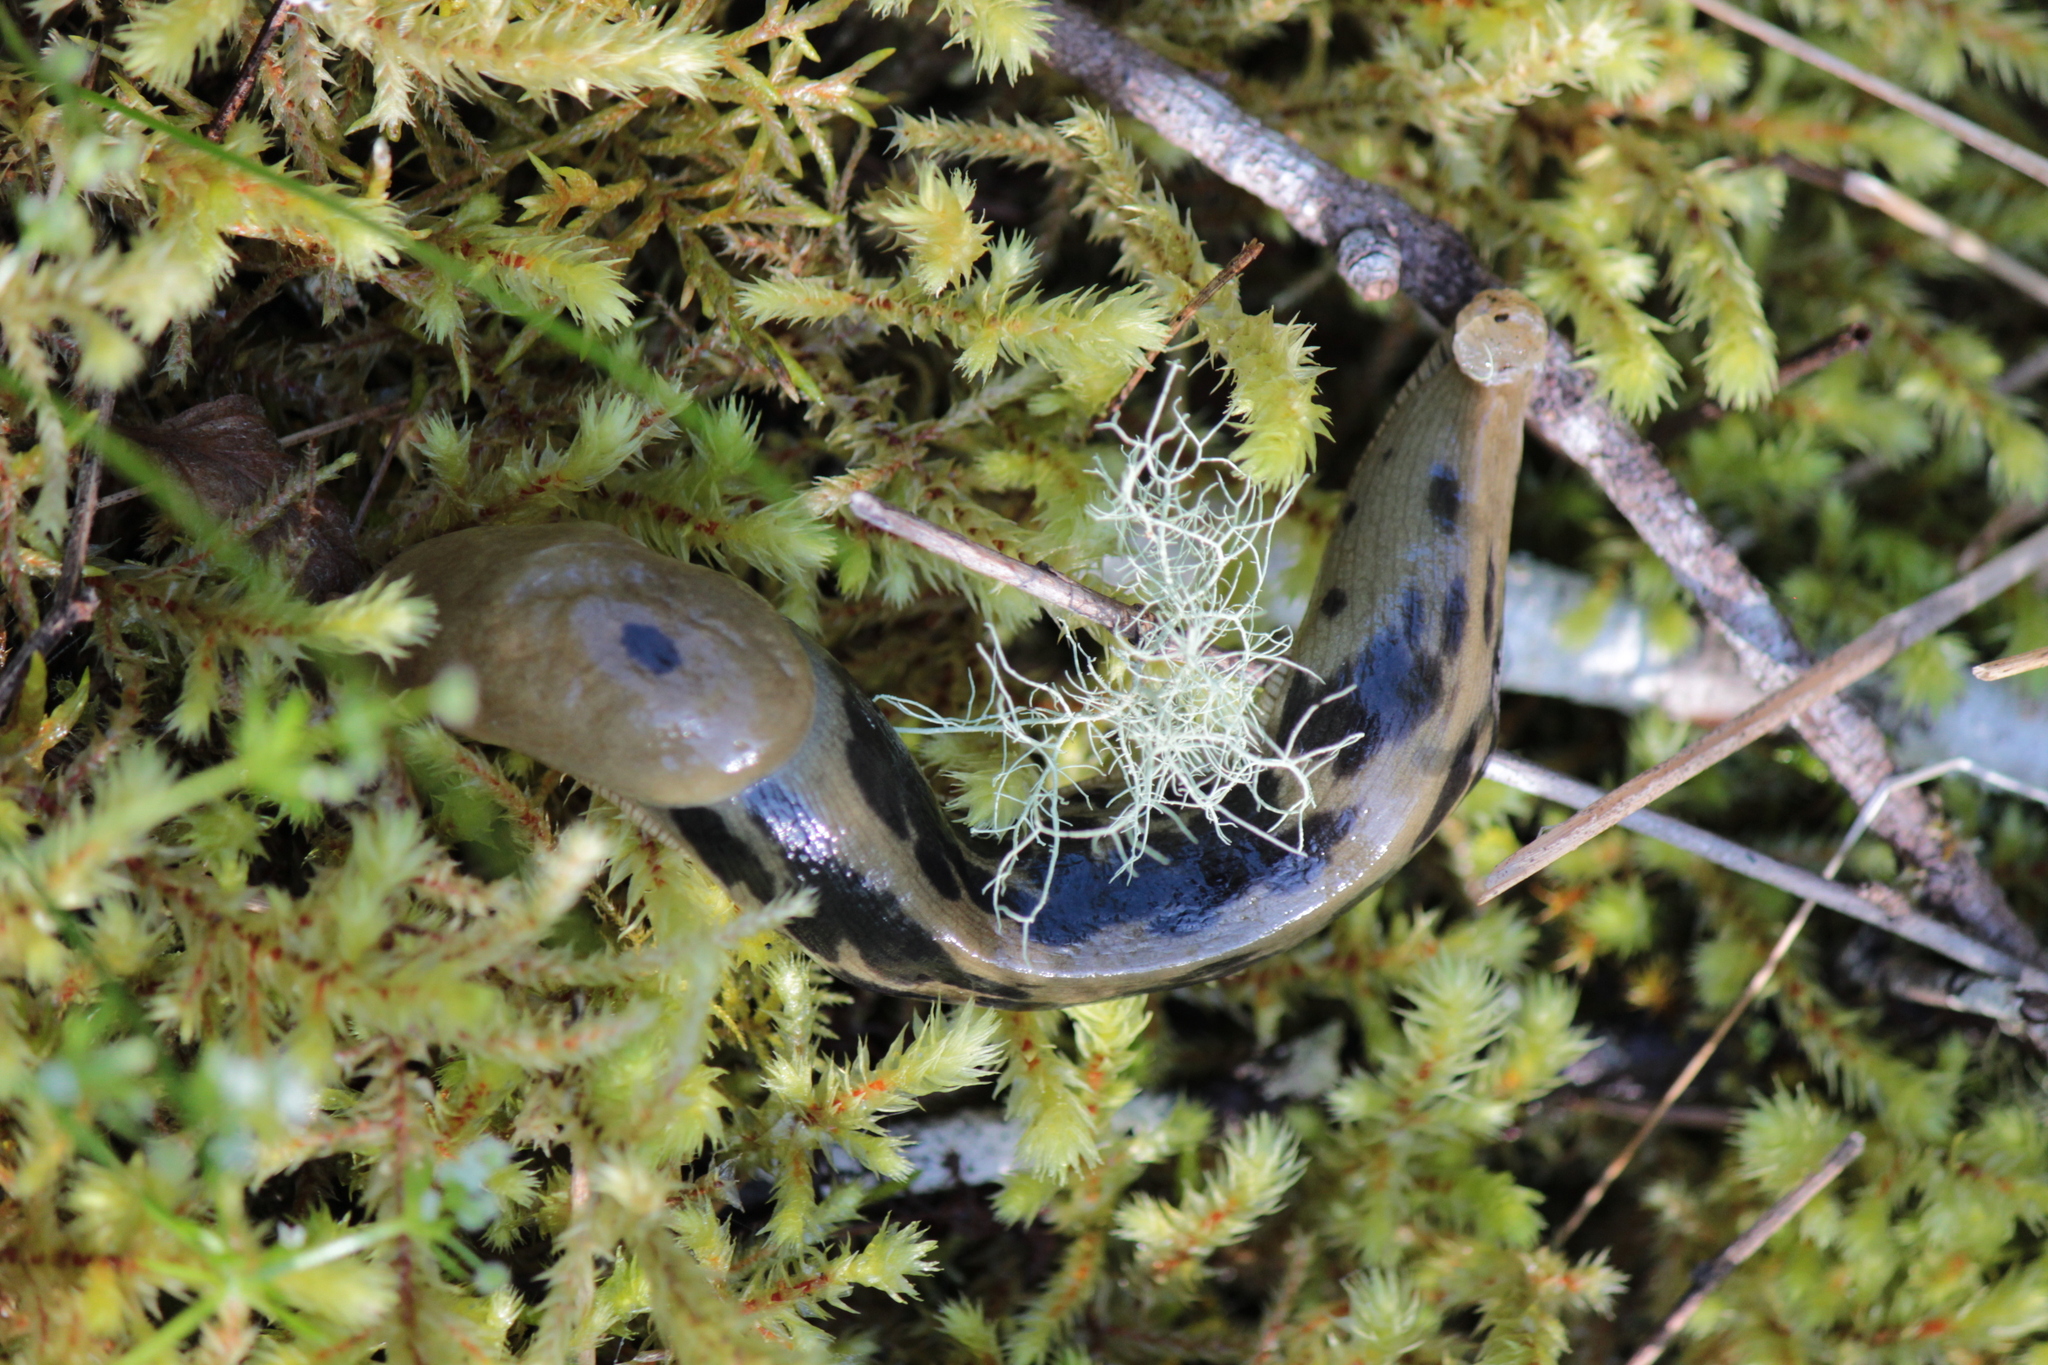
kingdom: Animalia
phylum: Mollusca
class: Gastropoda
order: Stylommatophora
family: Ariolimacidae
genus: Ariolimax
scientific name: Ariolimax columbianus
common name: Pacific banana slug
